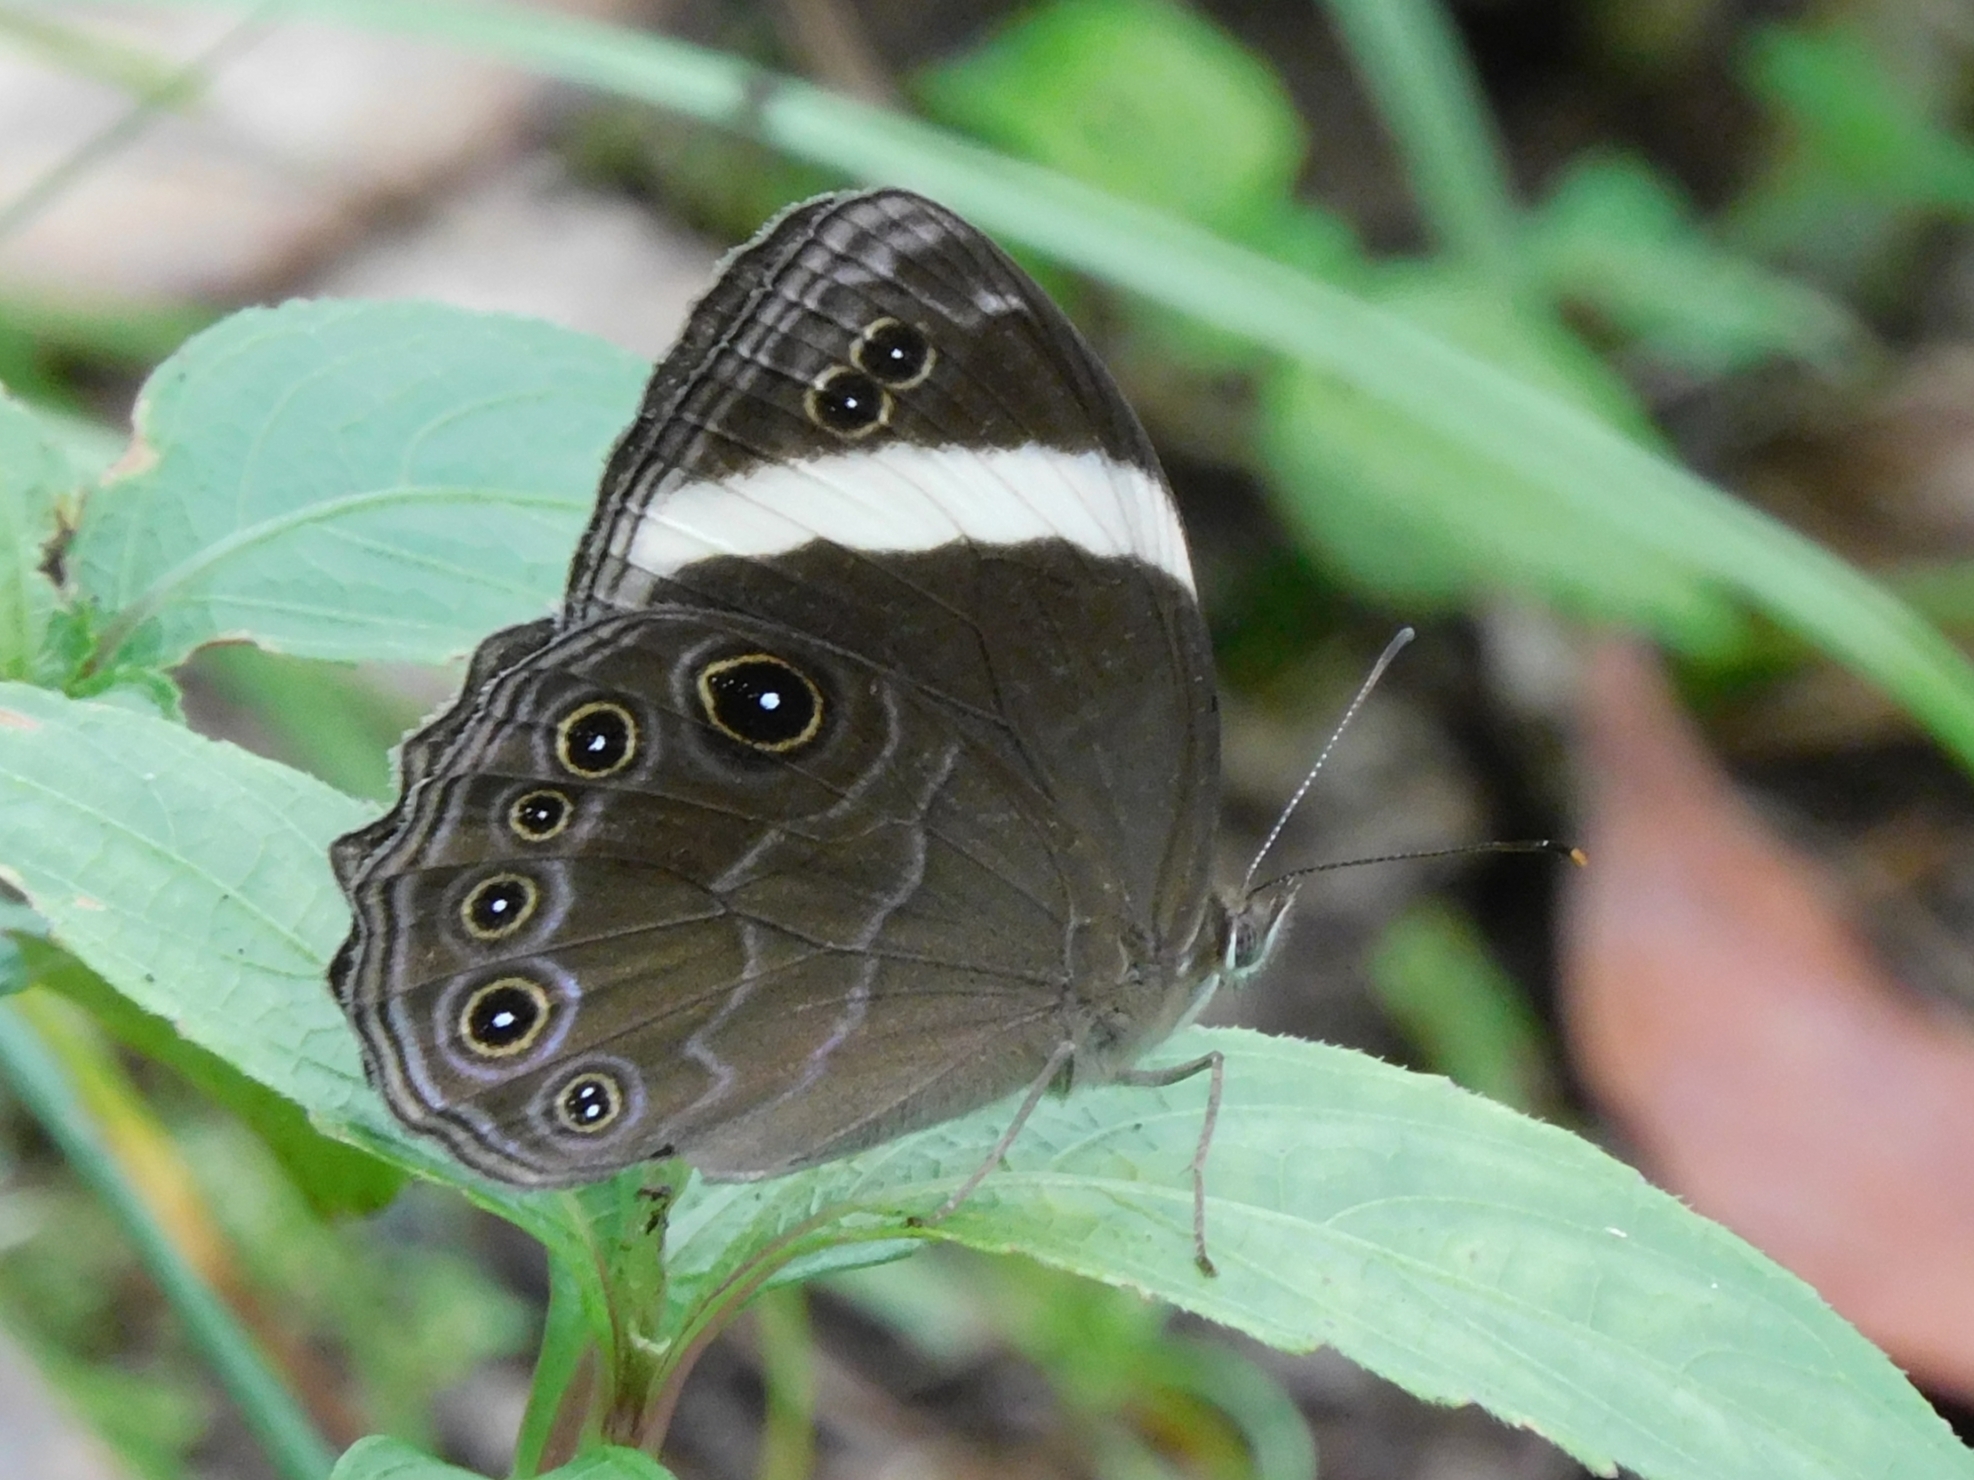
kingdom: Animalia
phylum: Arthropoda
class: Insecta
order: Lepidoptera
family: Nymphalidae
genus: Lethe
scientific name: Lethe verma
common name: Straight-banded treebrown
